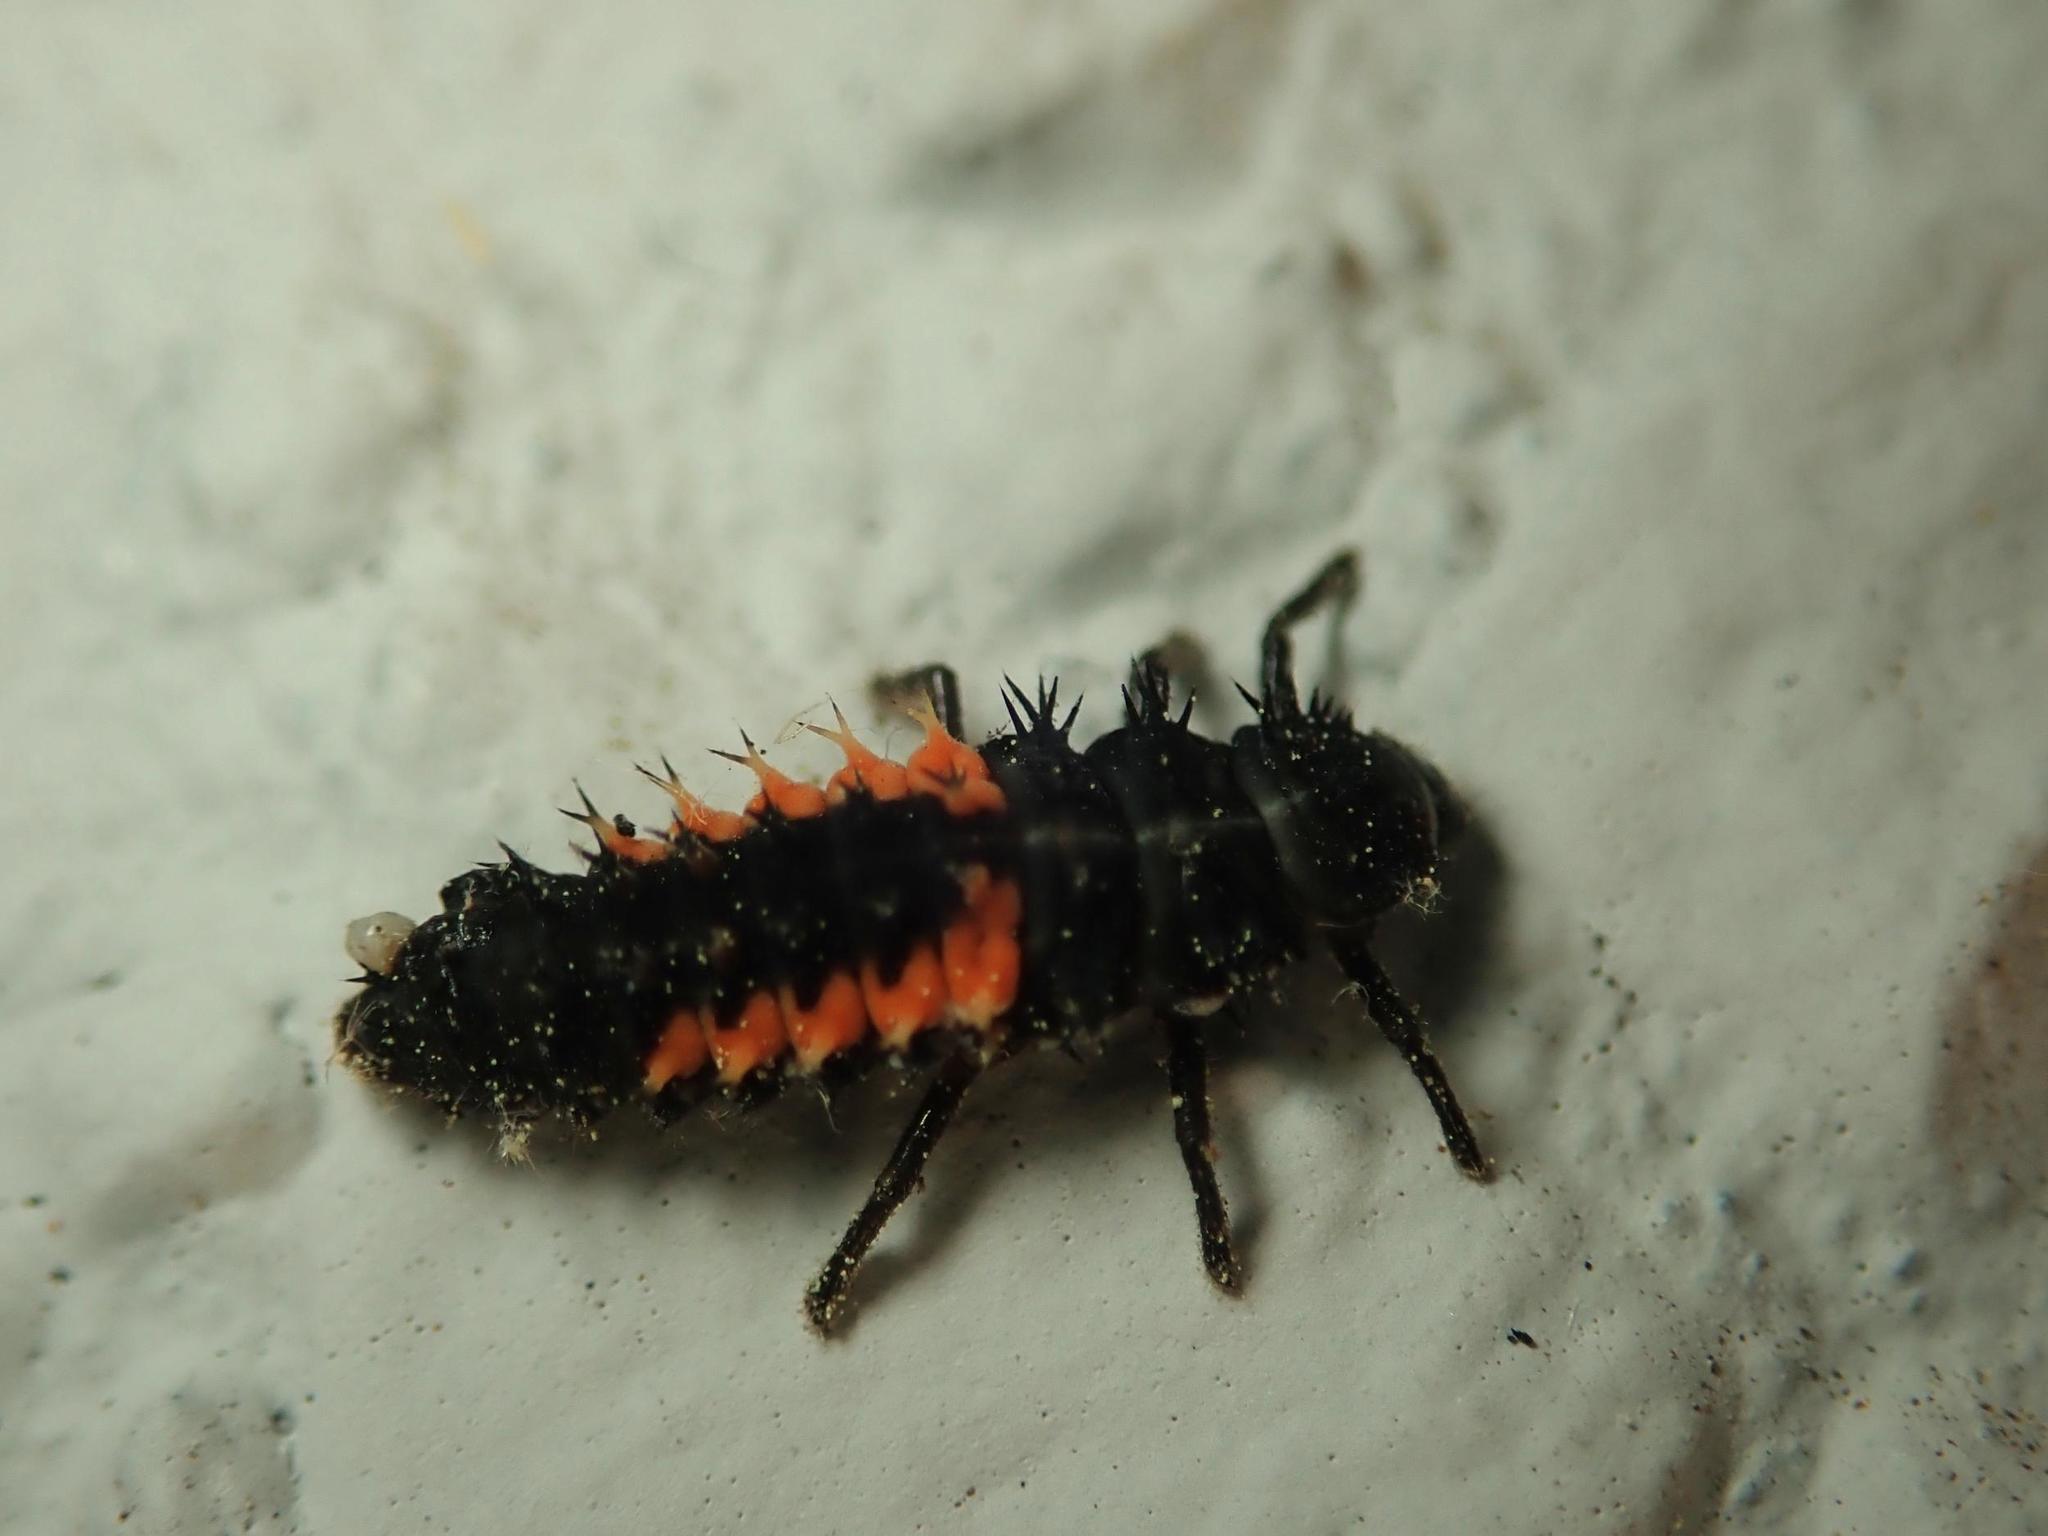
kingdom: Animalia
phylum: Arthropoda
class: Insecta
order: Coleoptera
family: Coccinellidae
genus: Harmonia
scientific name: Harmonia axyridis
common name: Harlequin ladybird
